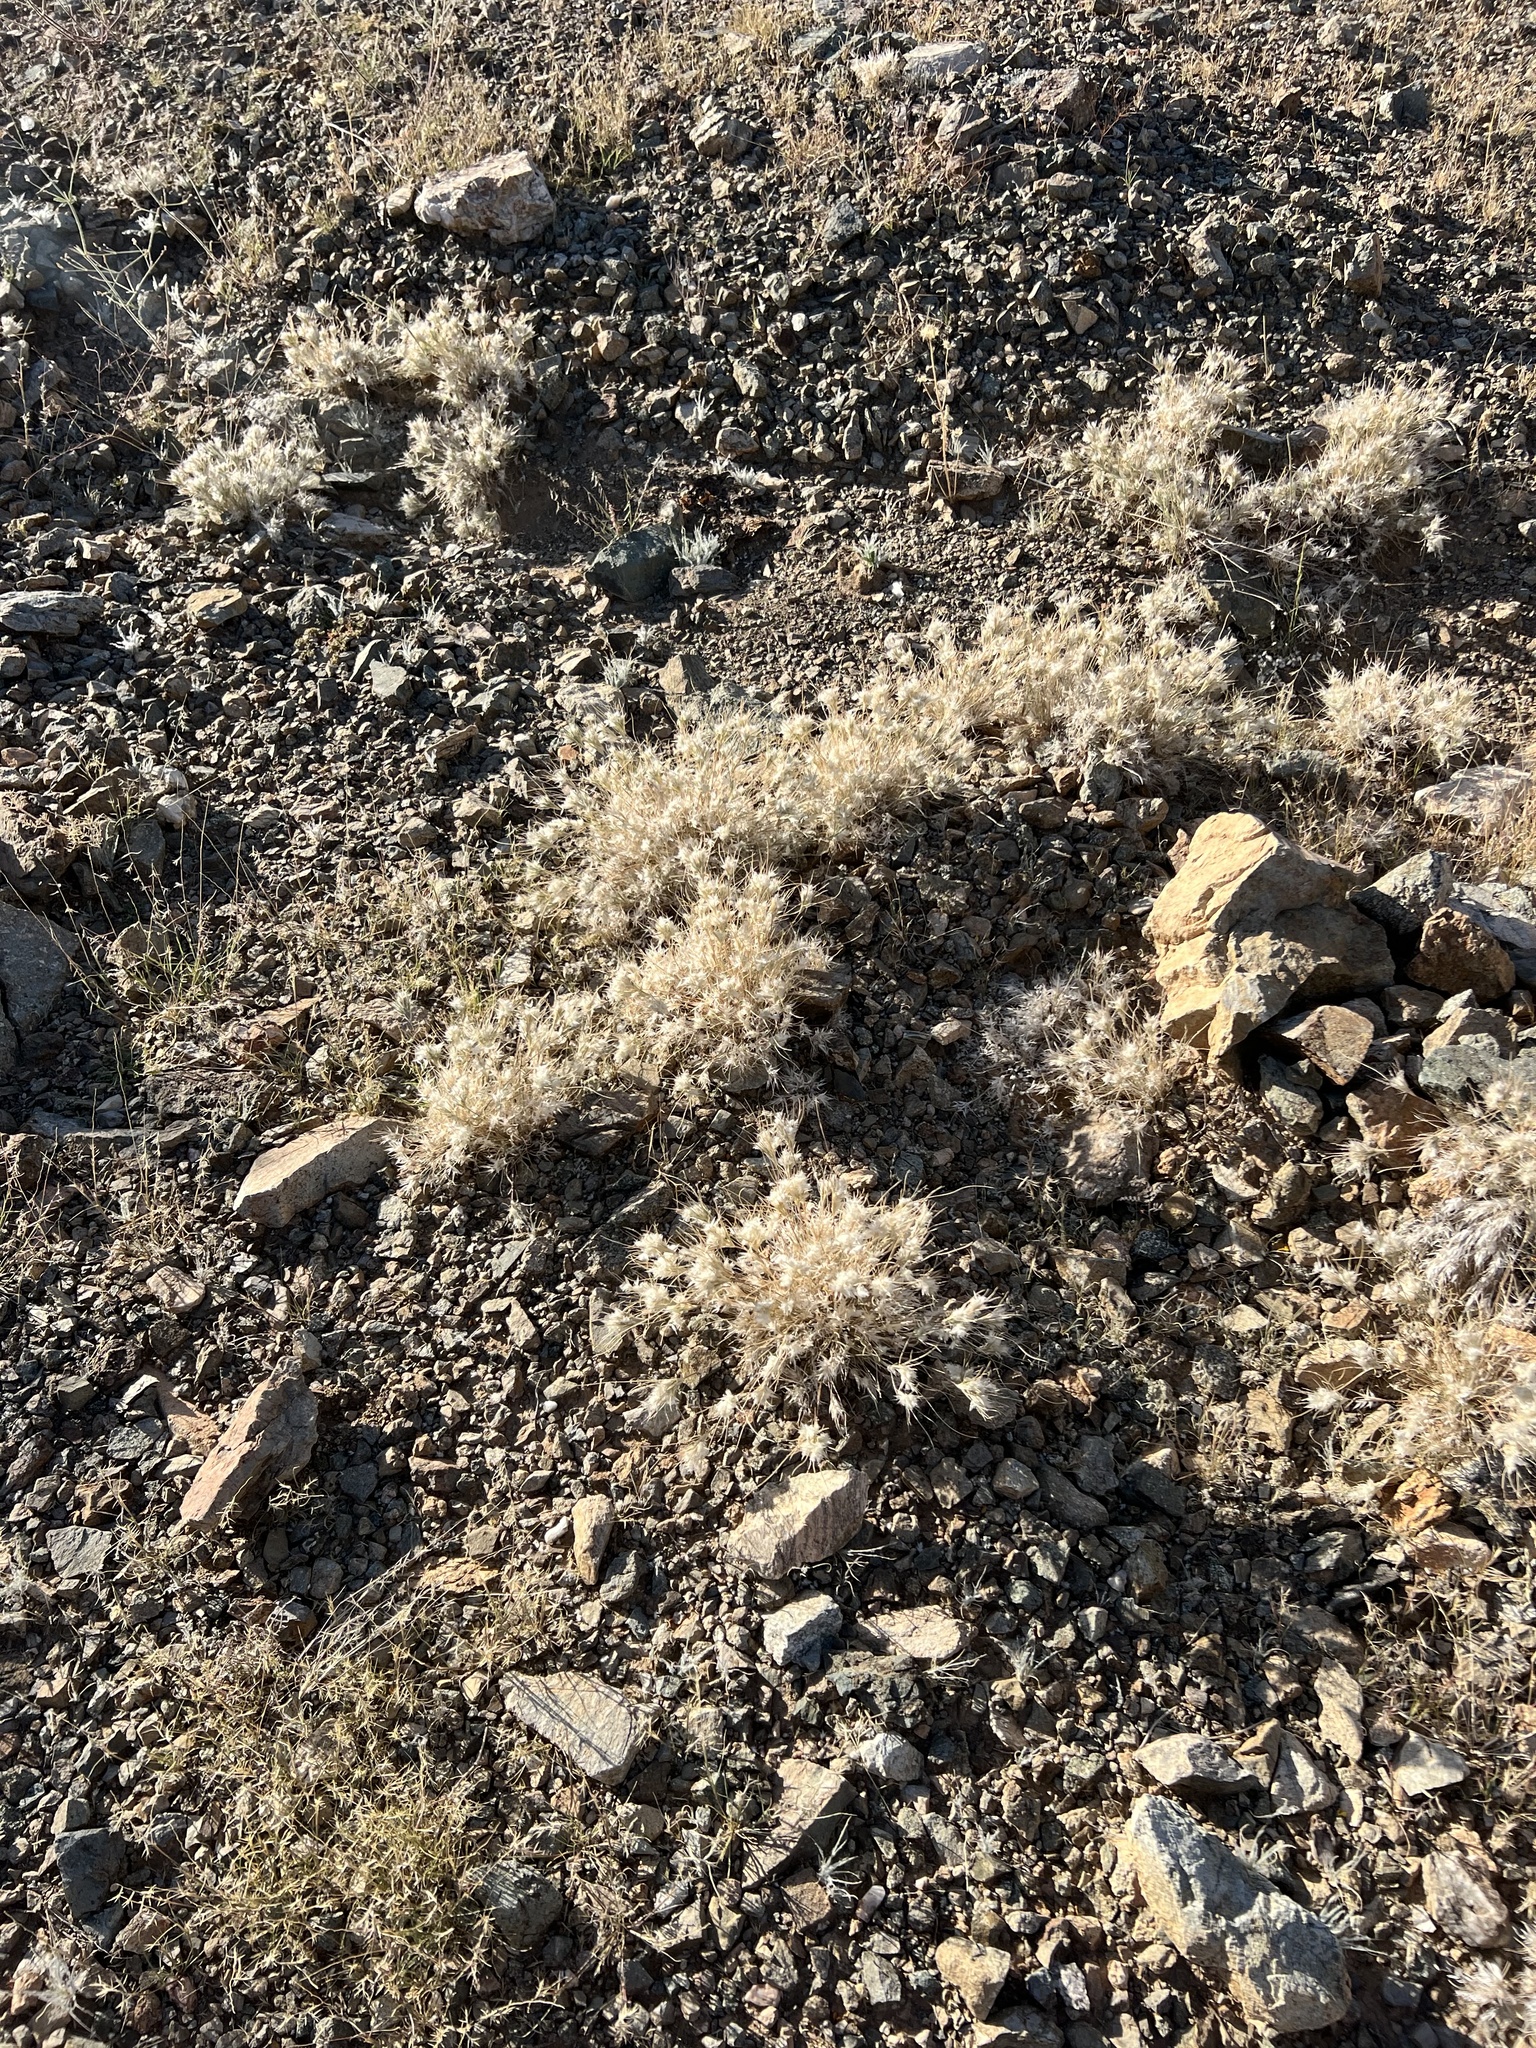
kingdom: Plantae
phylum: Tracheophyta
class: Liliopsida
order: Poales
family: Poaceae
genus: Dasyochloa
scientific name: Dasyochloa pulchella
